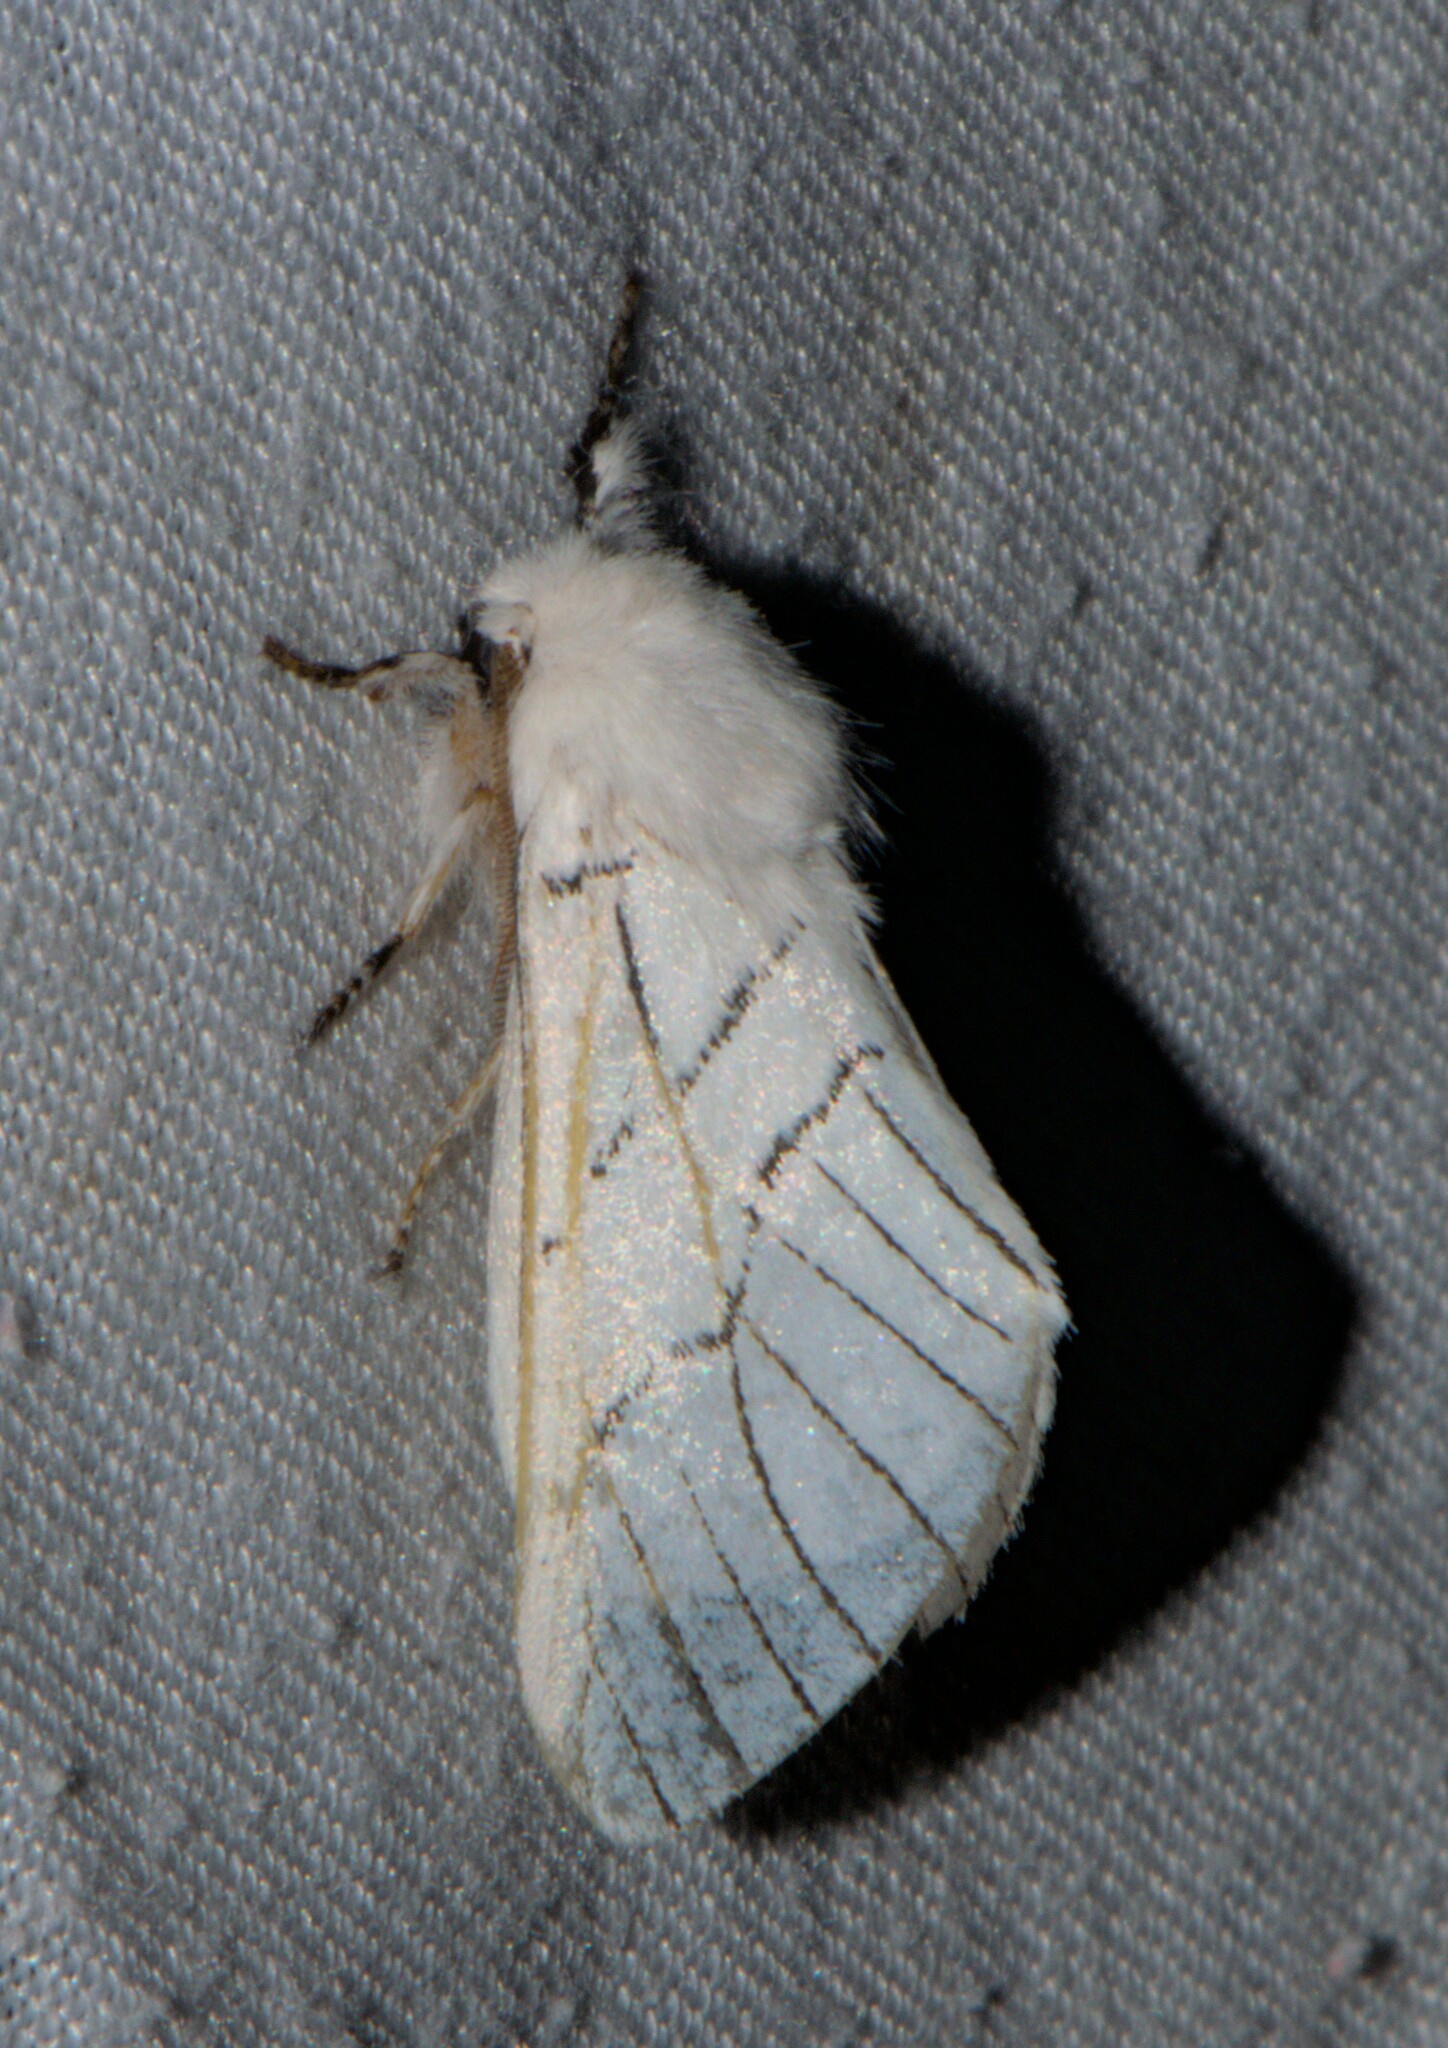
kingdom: Animalia
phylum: Arthropoda
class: Insecta
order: Lepidoptera
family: Notodontidae
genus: Oligoclona
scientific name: Oligoclona chrysolopha
